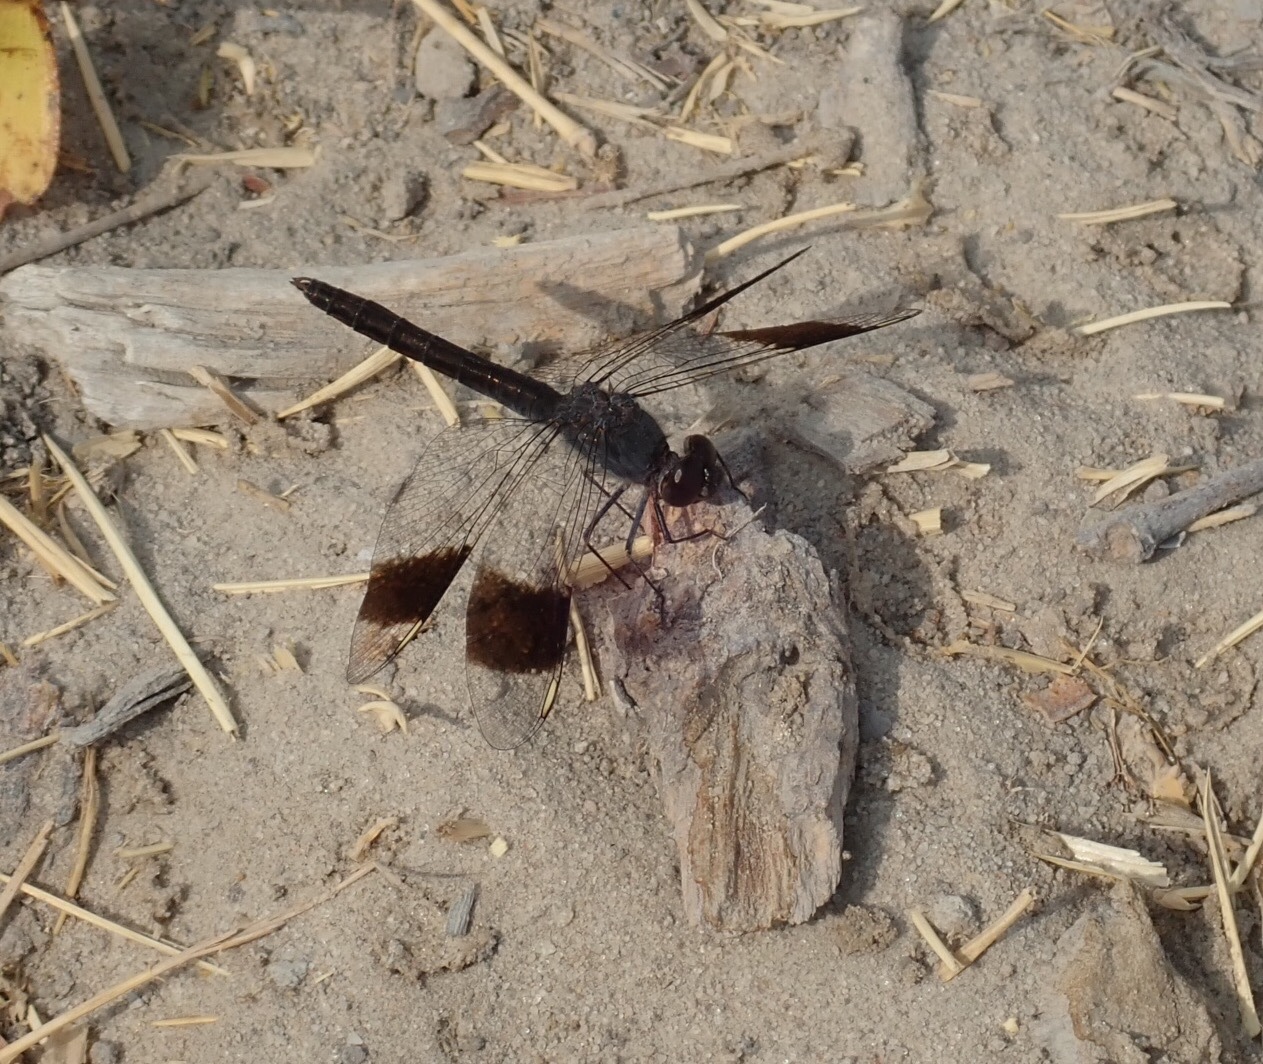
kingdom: Animalia
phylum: Arthropoda
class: Insecta
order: Odonata
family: Libellulidae
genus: Brachythemis
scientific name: Brachythemis leucosticta
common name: Banded groundling
